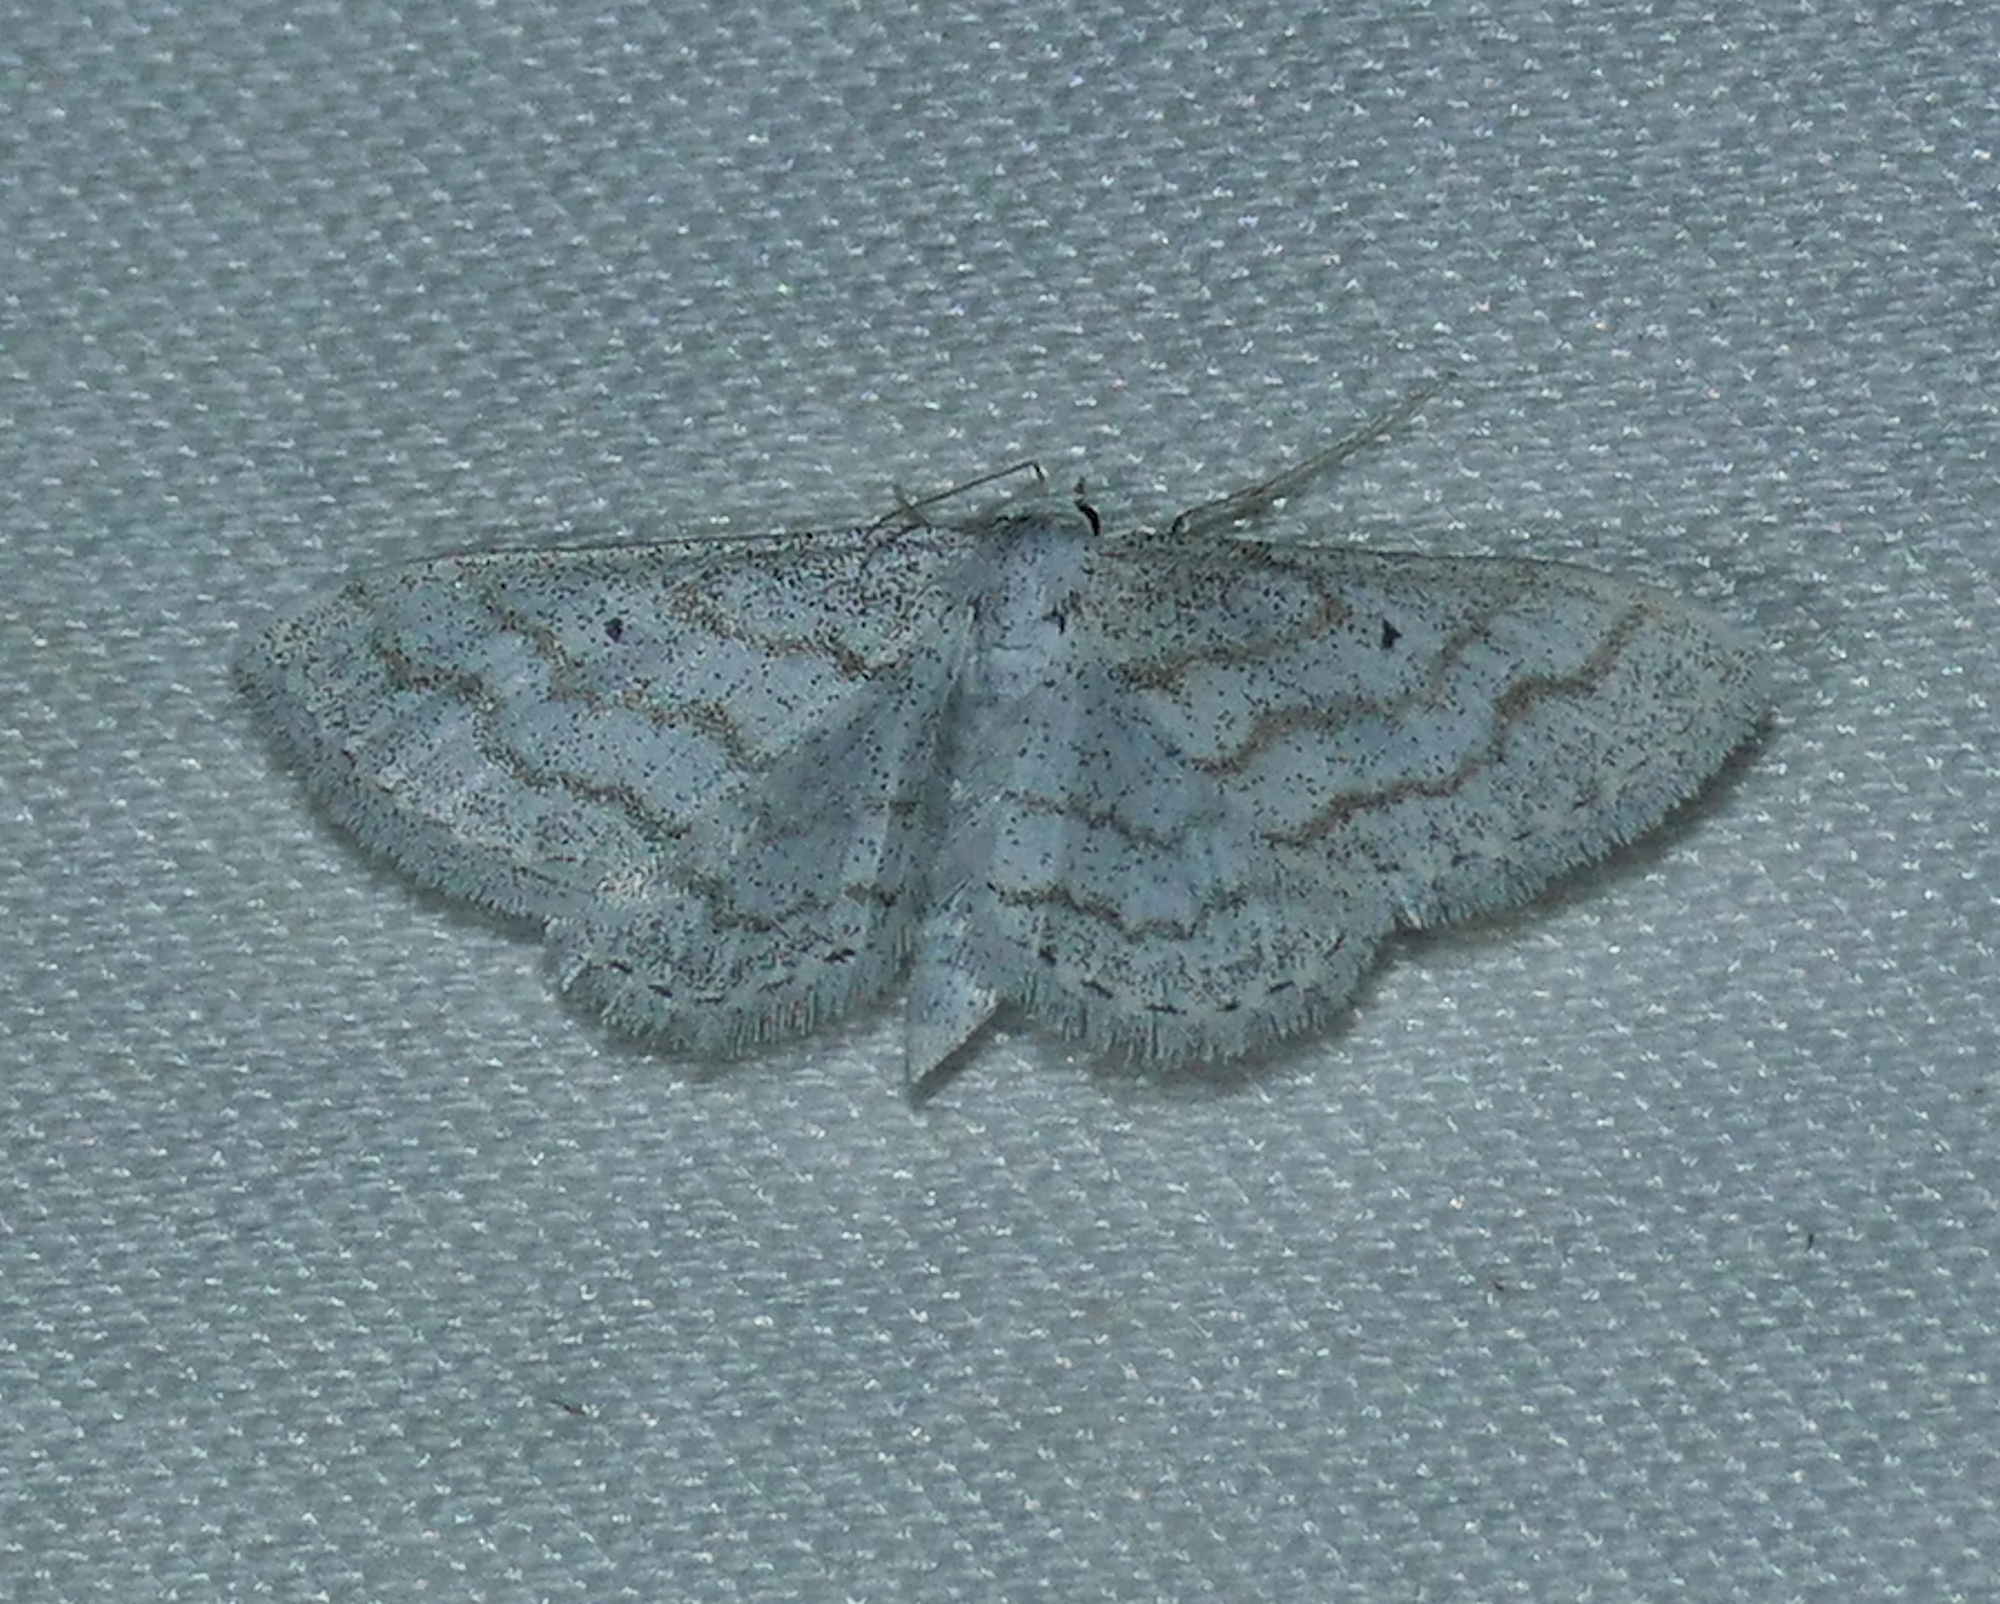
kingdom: Animalia
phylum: Arthropoda
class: Insecta
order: Lepidoptera
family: Geometridae
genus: Lobocleta
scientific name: Lobocleta peralbata
